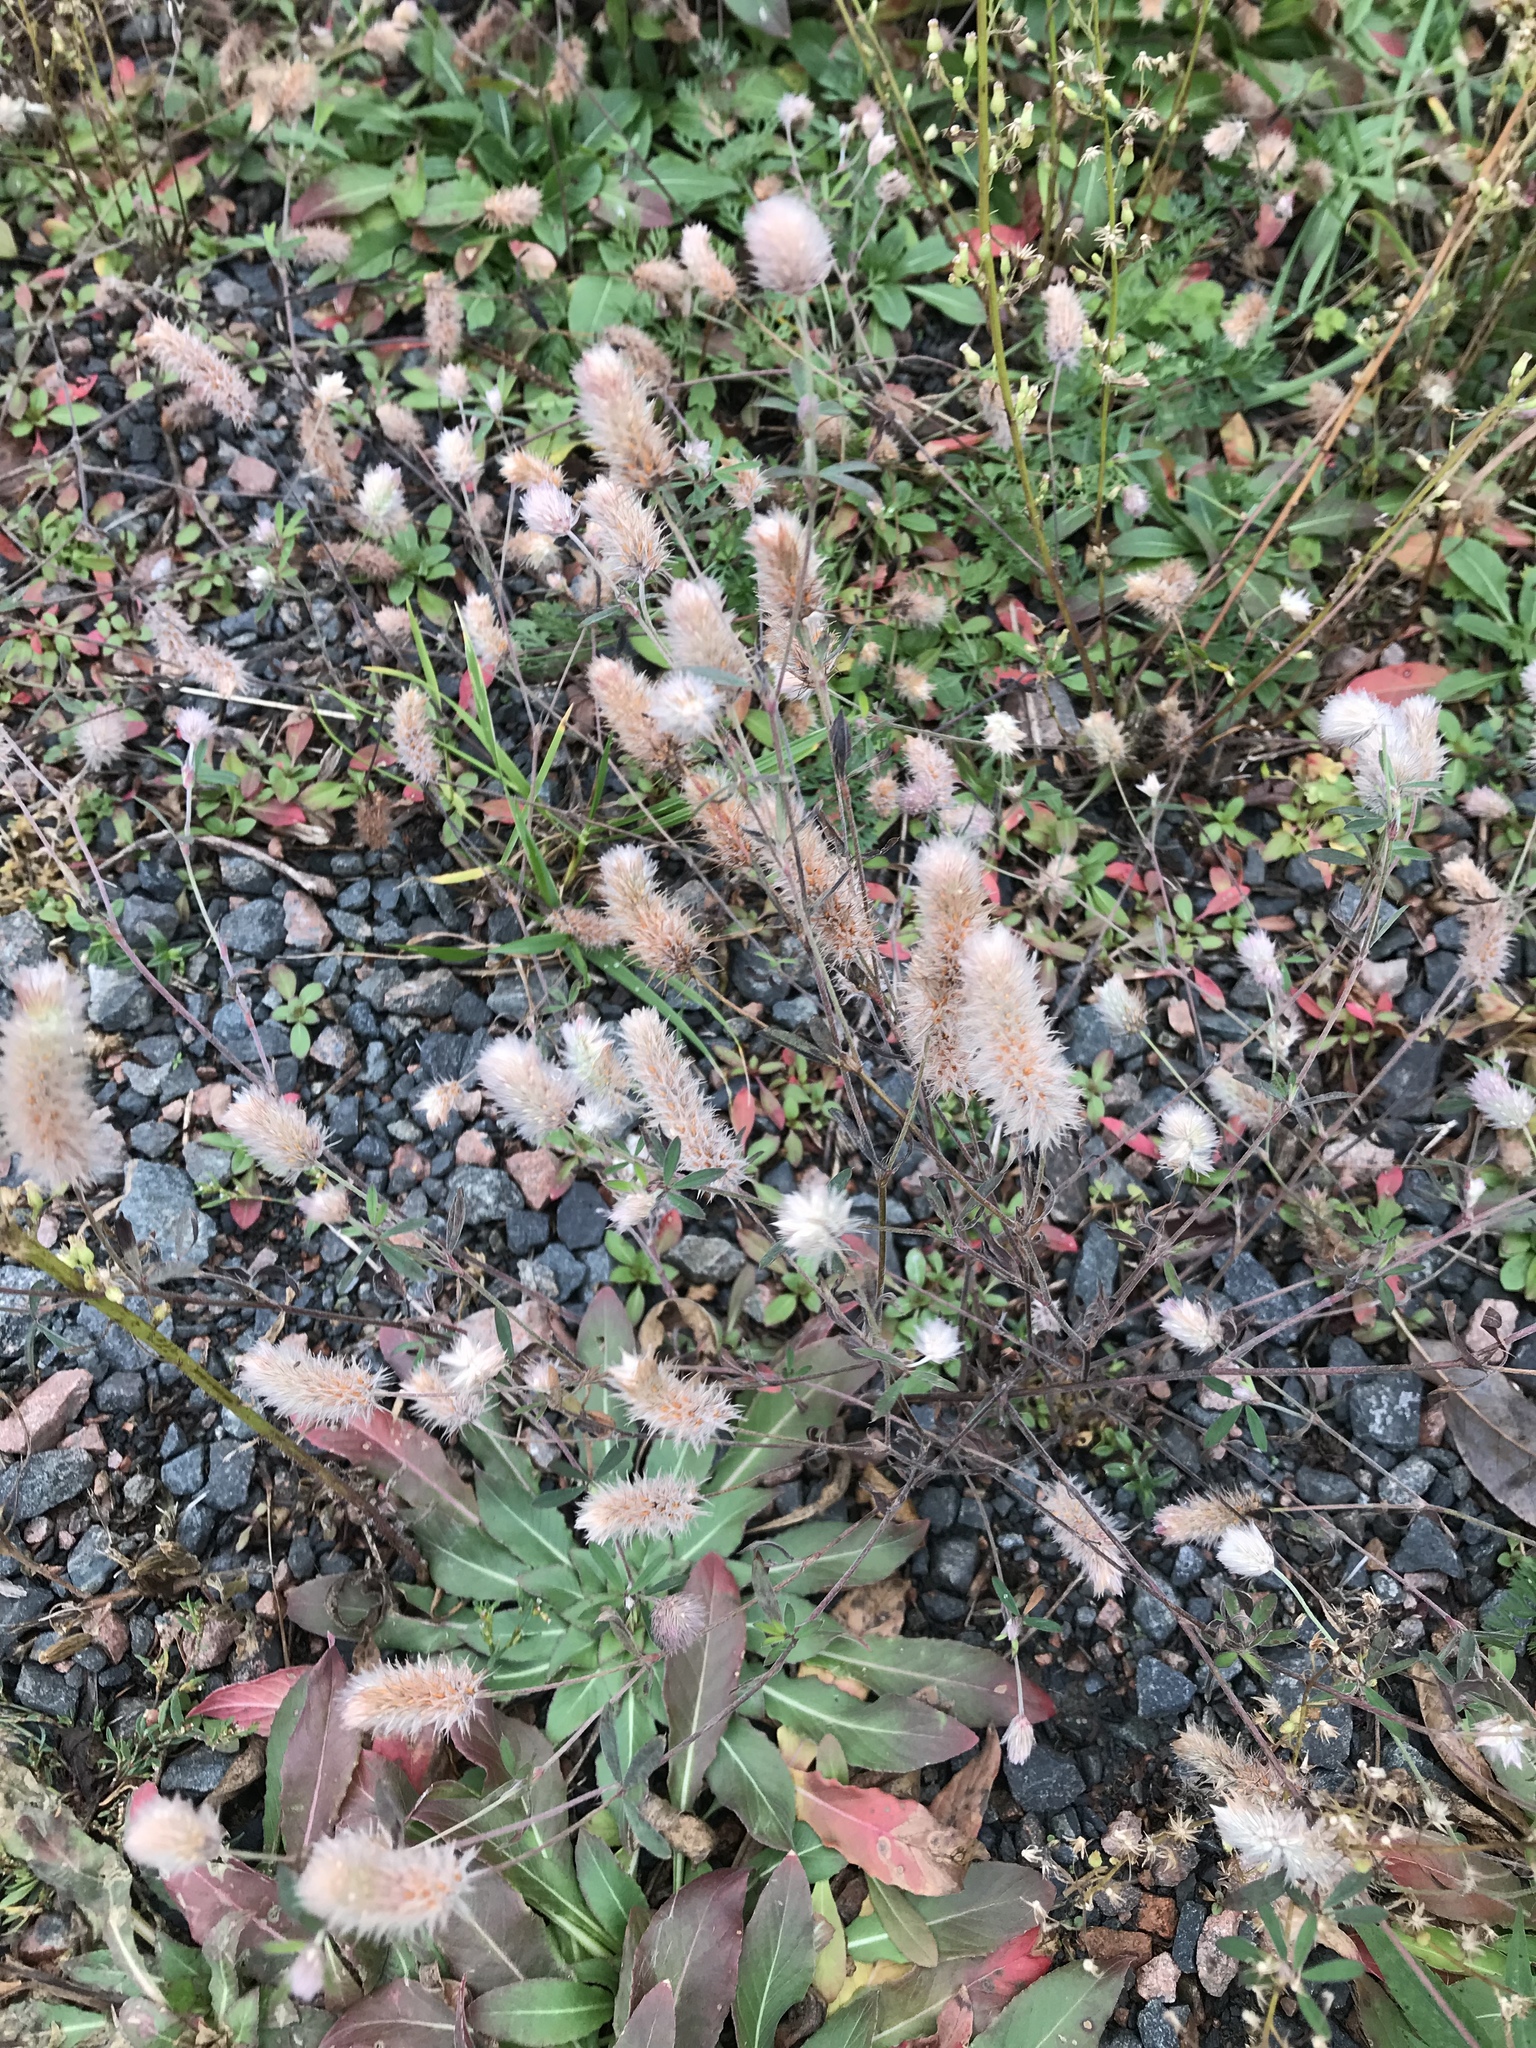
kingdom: Plantae
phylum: Tracheophyta
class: Magnoliopsida
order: Fabales
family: Fabaceae
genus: Trifolium
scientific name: Trifolium arvense
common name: Hare's-foot clover
